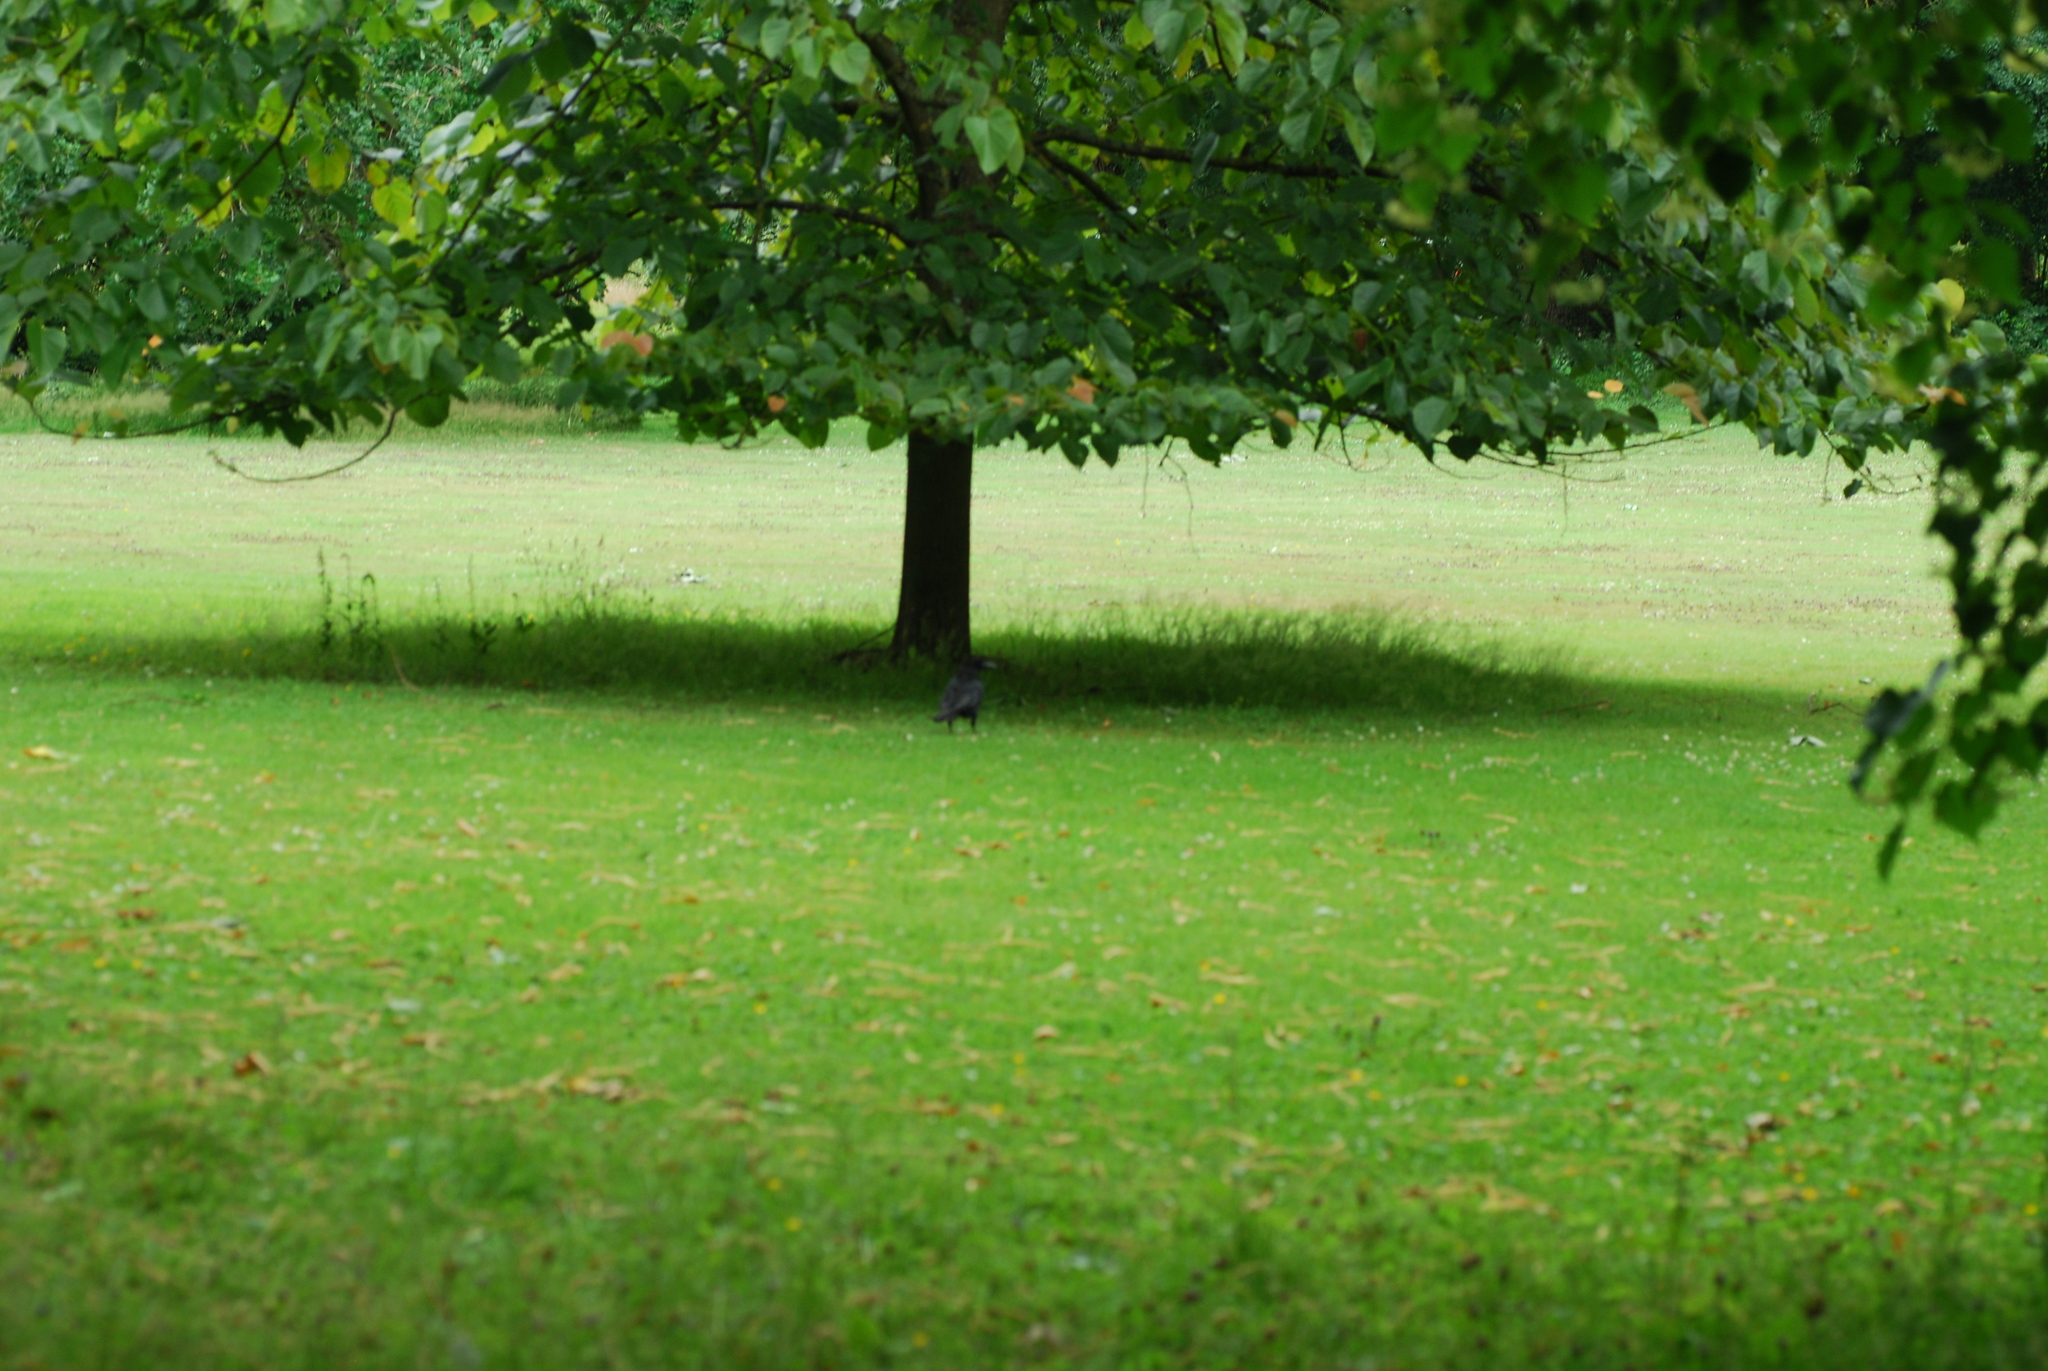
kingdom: Animalia
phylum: Chordata
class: Aves
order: Passeriformes
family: Corvidae
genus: Corvus
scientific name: Corvus corone
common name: Carrion crow
